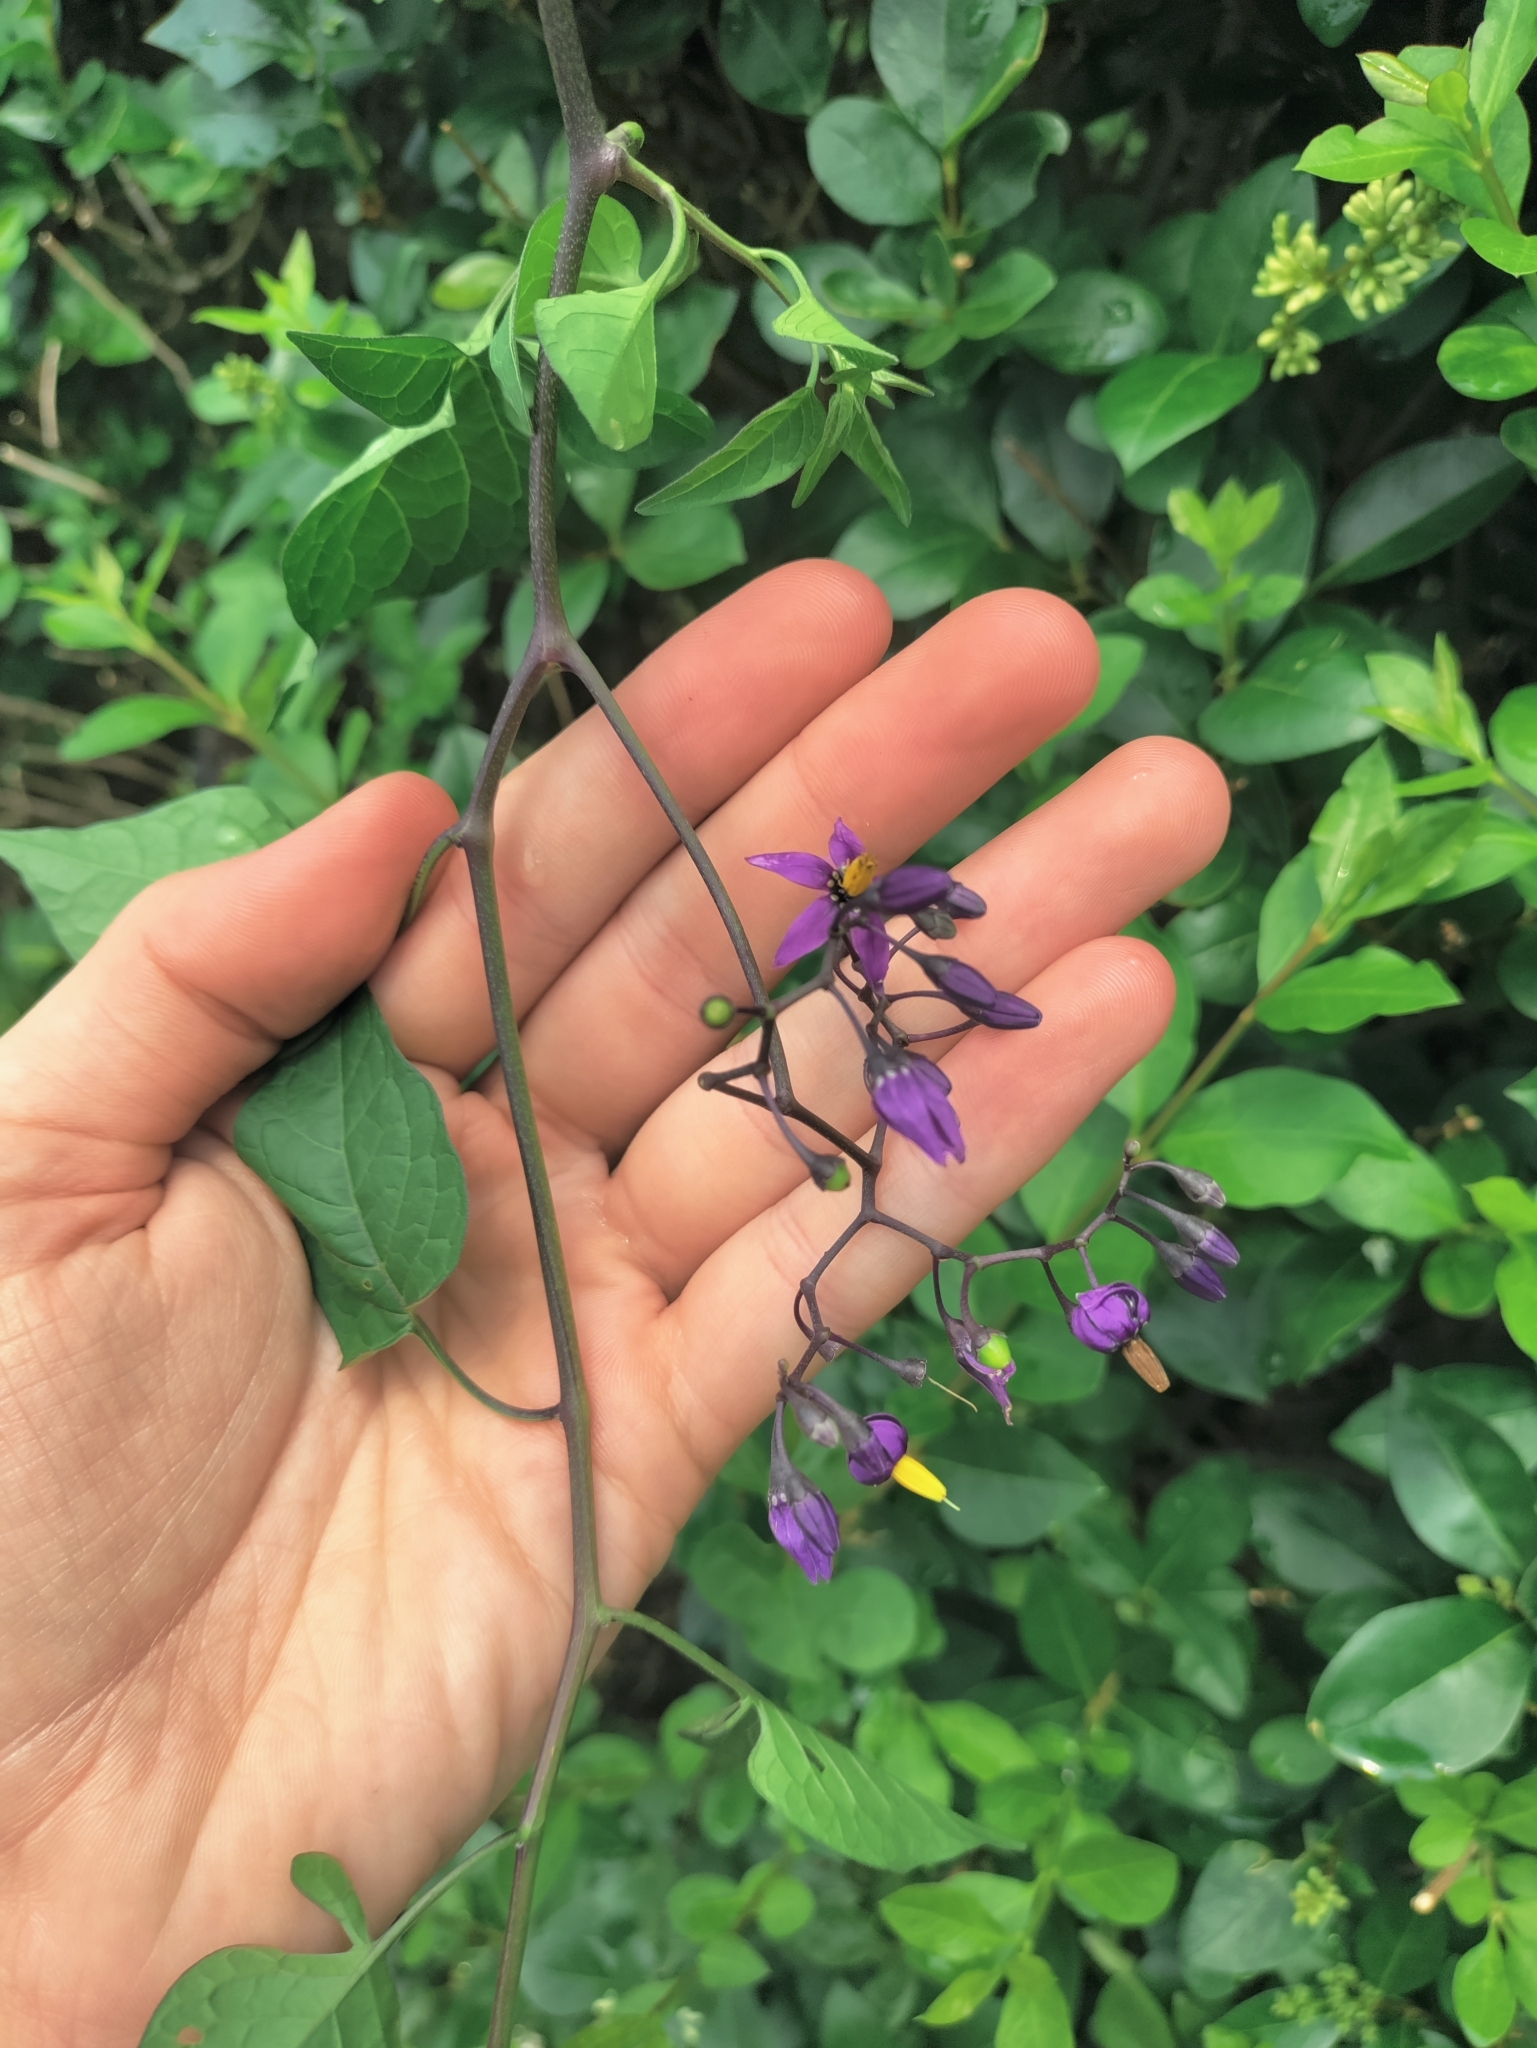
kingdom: Plantae
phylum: Tracheophyta
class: Magnoliopsida
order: Solanales
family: Solanaceae
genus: Solanum
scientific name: Solanum dulcamara
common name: Climbing nightshade
